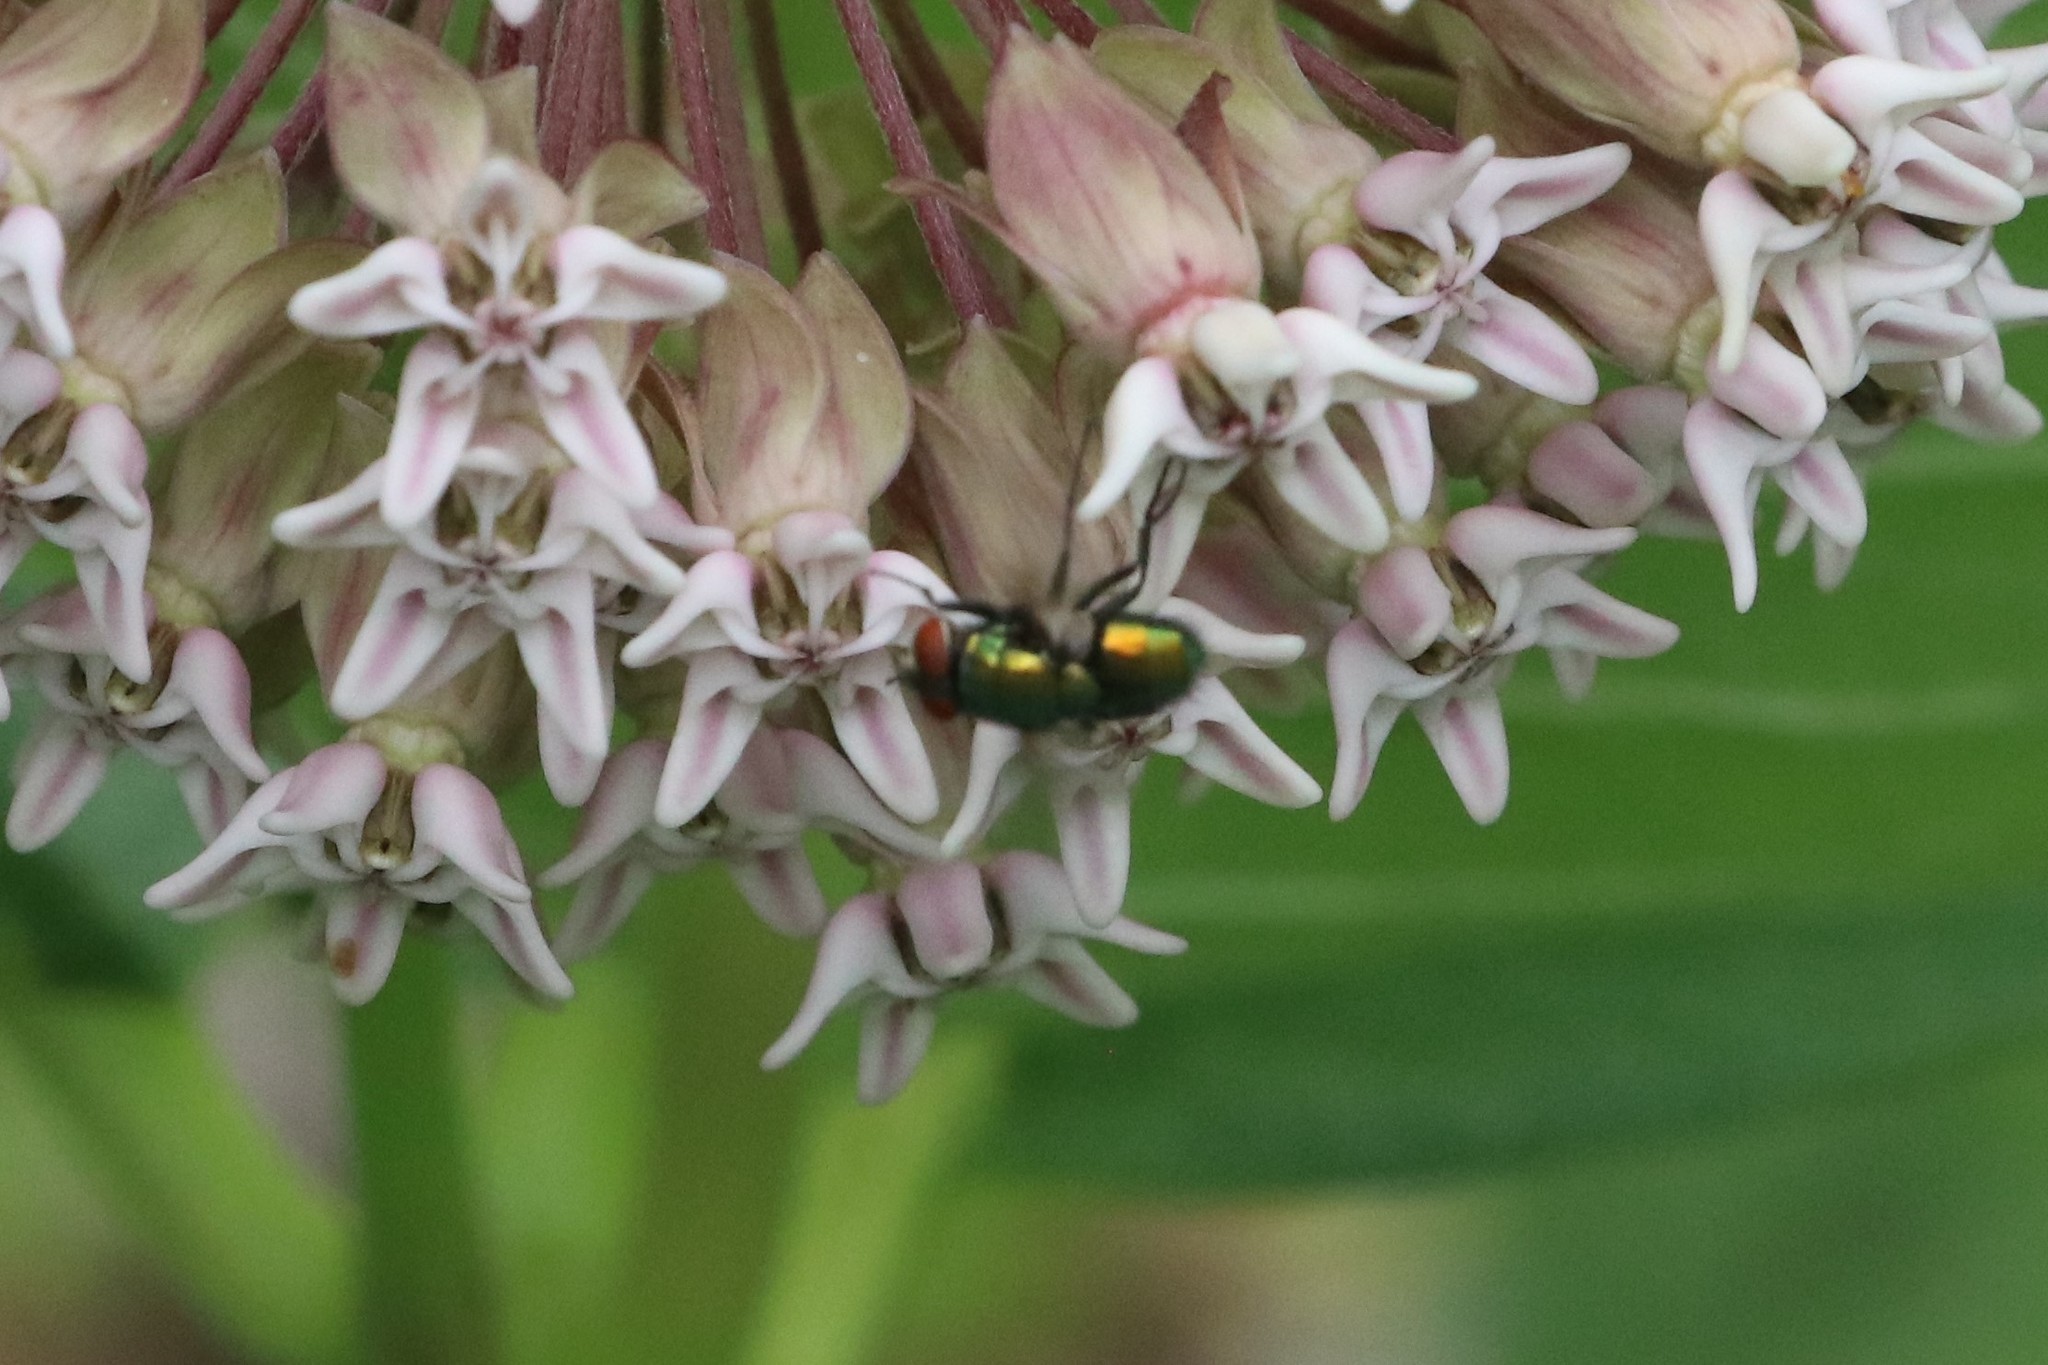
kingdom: Animalia
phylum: Arthropoda
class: Insecta
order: Diptera
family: Calliphoridae
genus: Lucilia
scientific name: Lucilia sericata
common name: Blow fly
